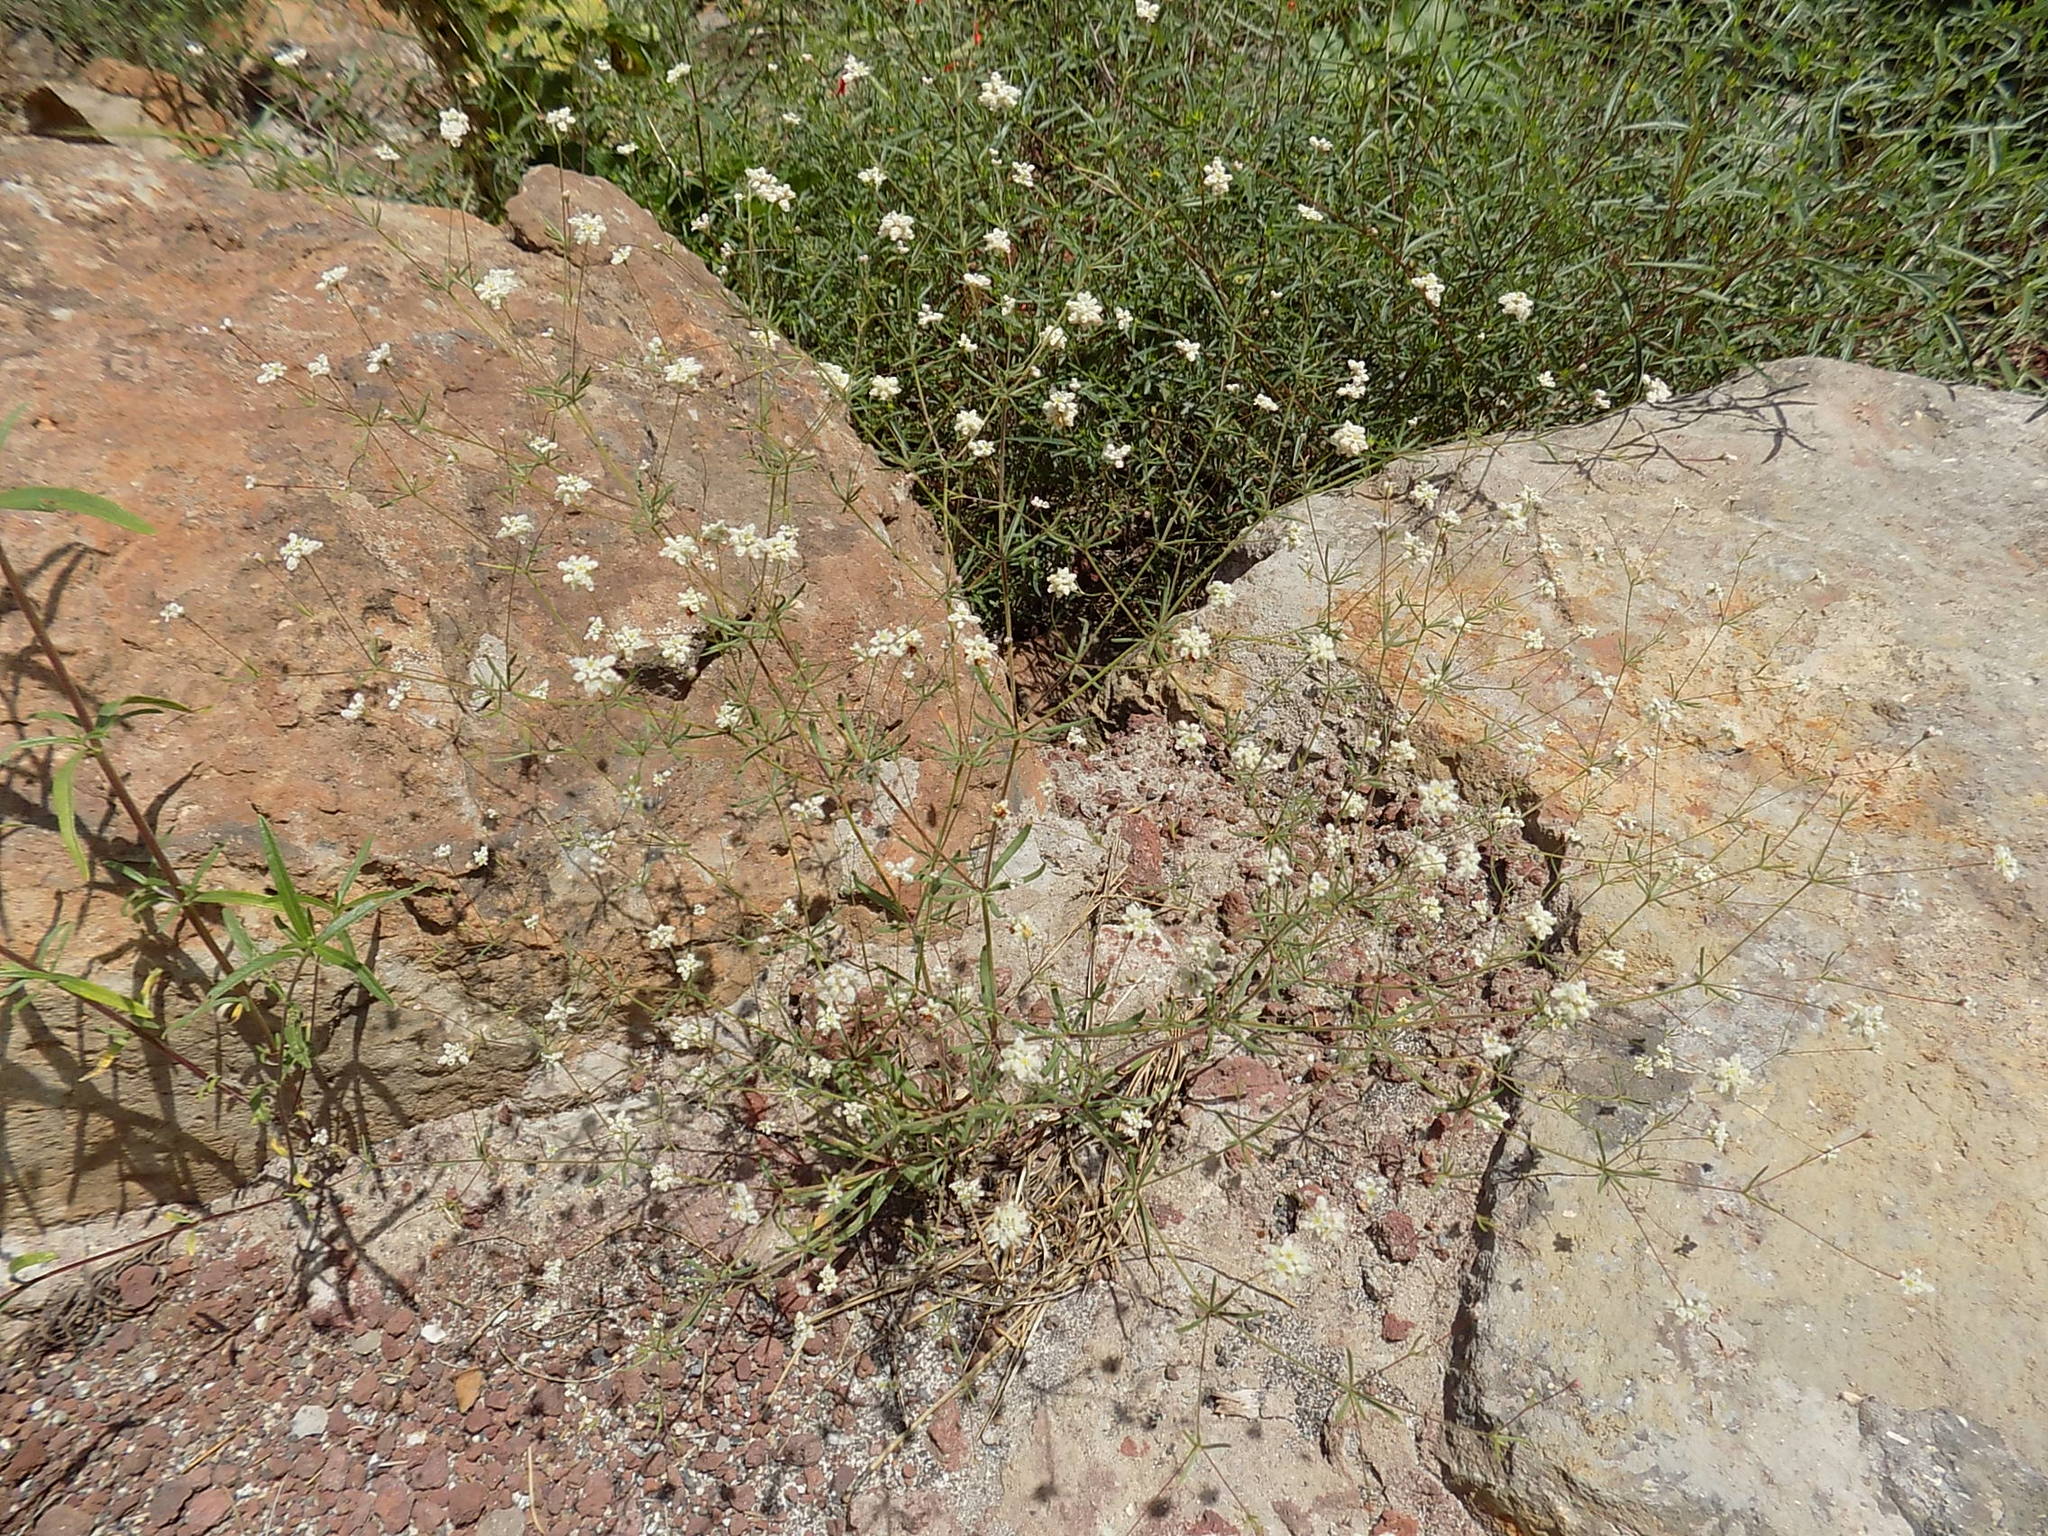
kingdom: Plantae
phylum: Tracheophyta
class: Magnoliopsida
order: Caryophyllales
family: Polygonaceae
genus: Eriogonum
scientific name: Eriogonum pharnaceoides
